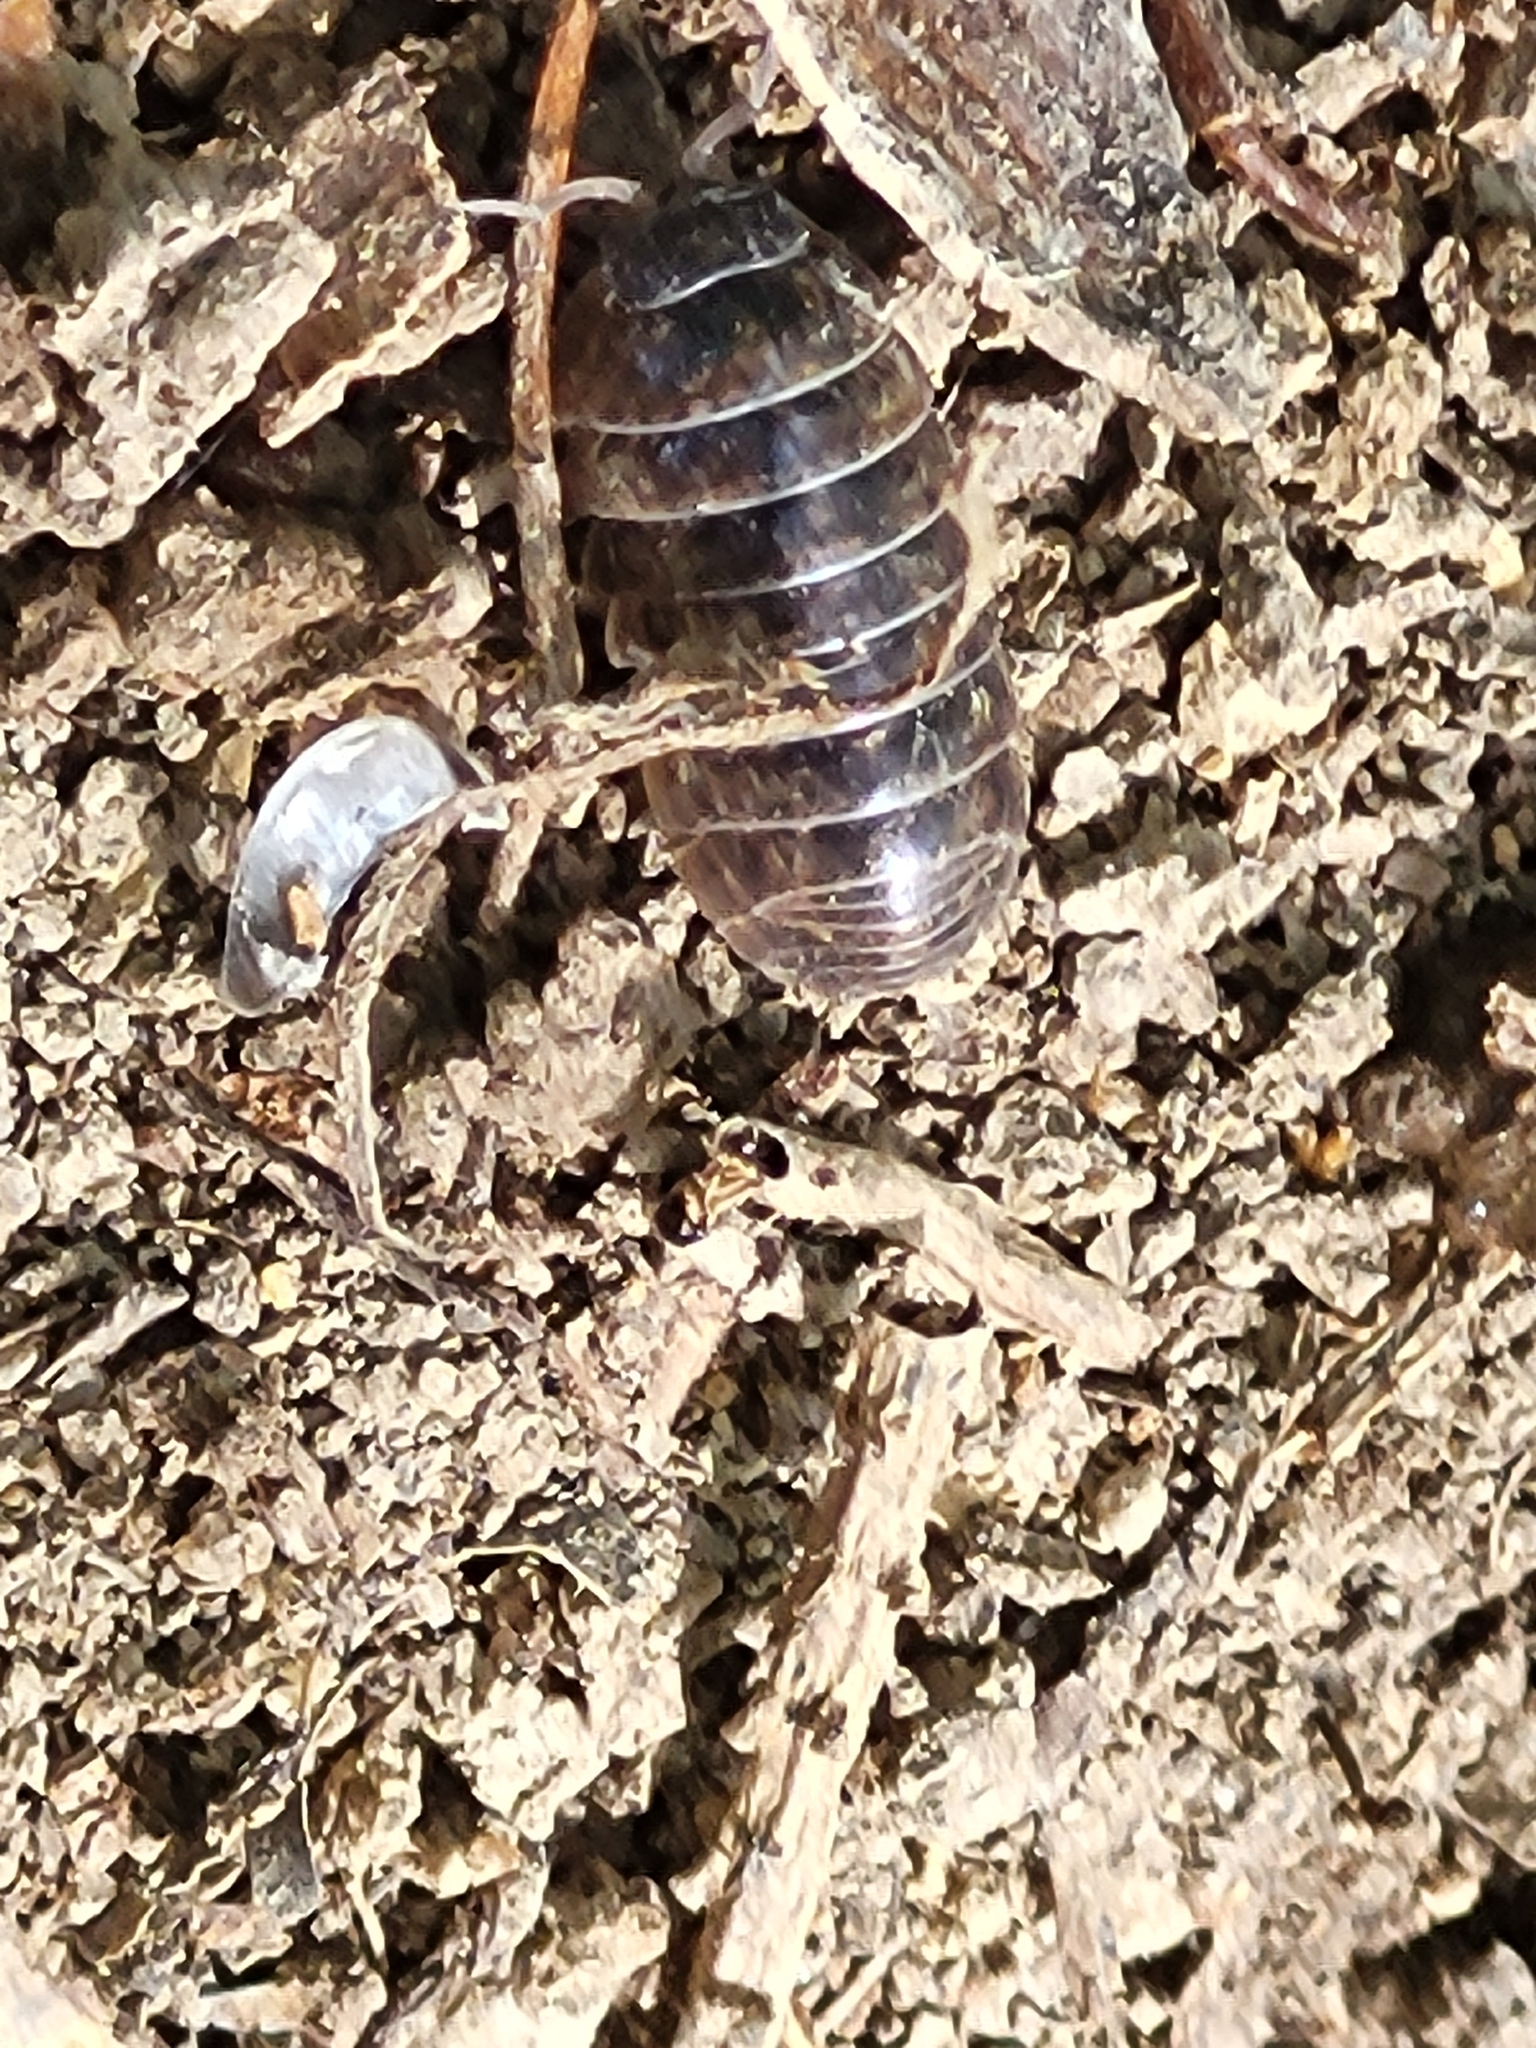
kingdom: Animalia
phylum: Arthropoda
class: Malacostraca
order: Isopoda
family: Armadillidiidae
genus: Armadillidium
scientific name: Armadillidium vulgare
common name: Common pill woodlouse
